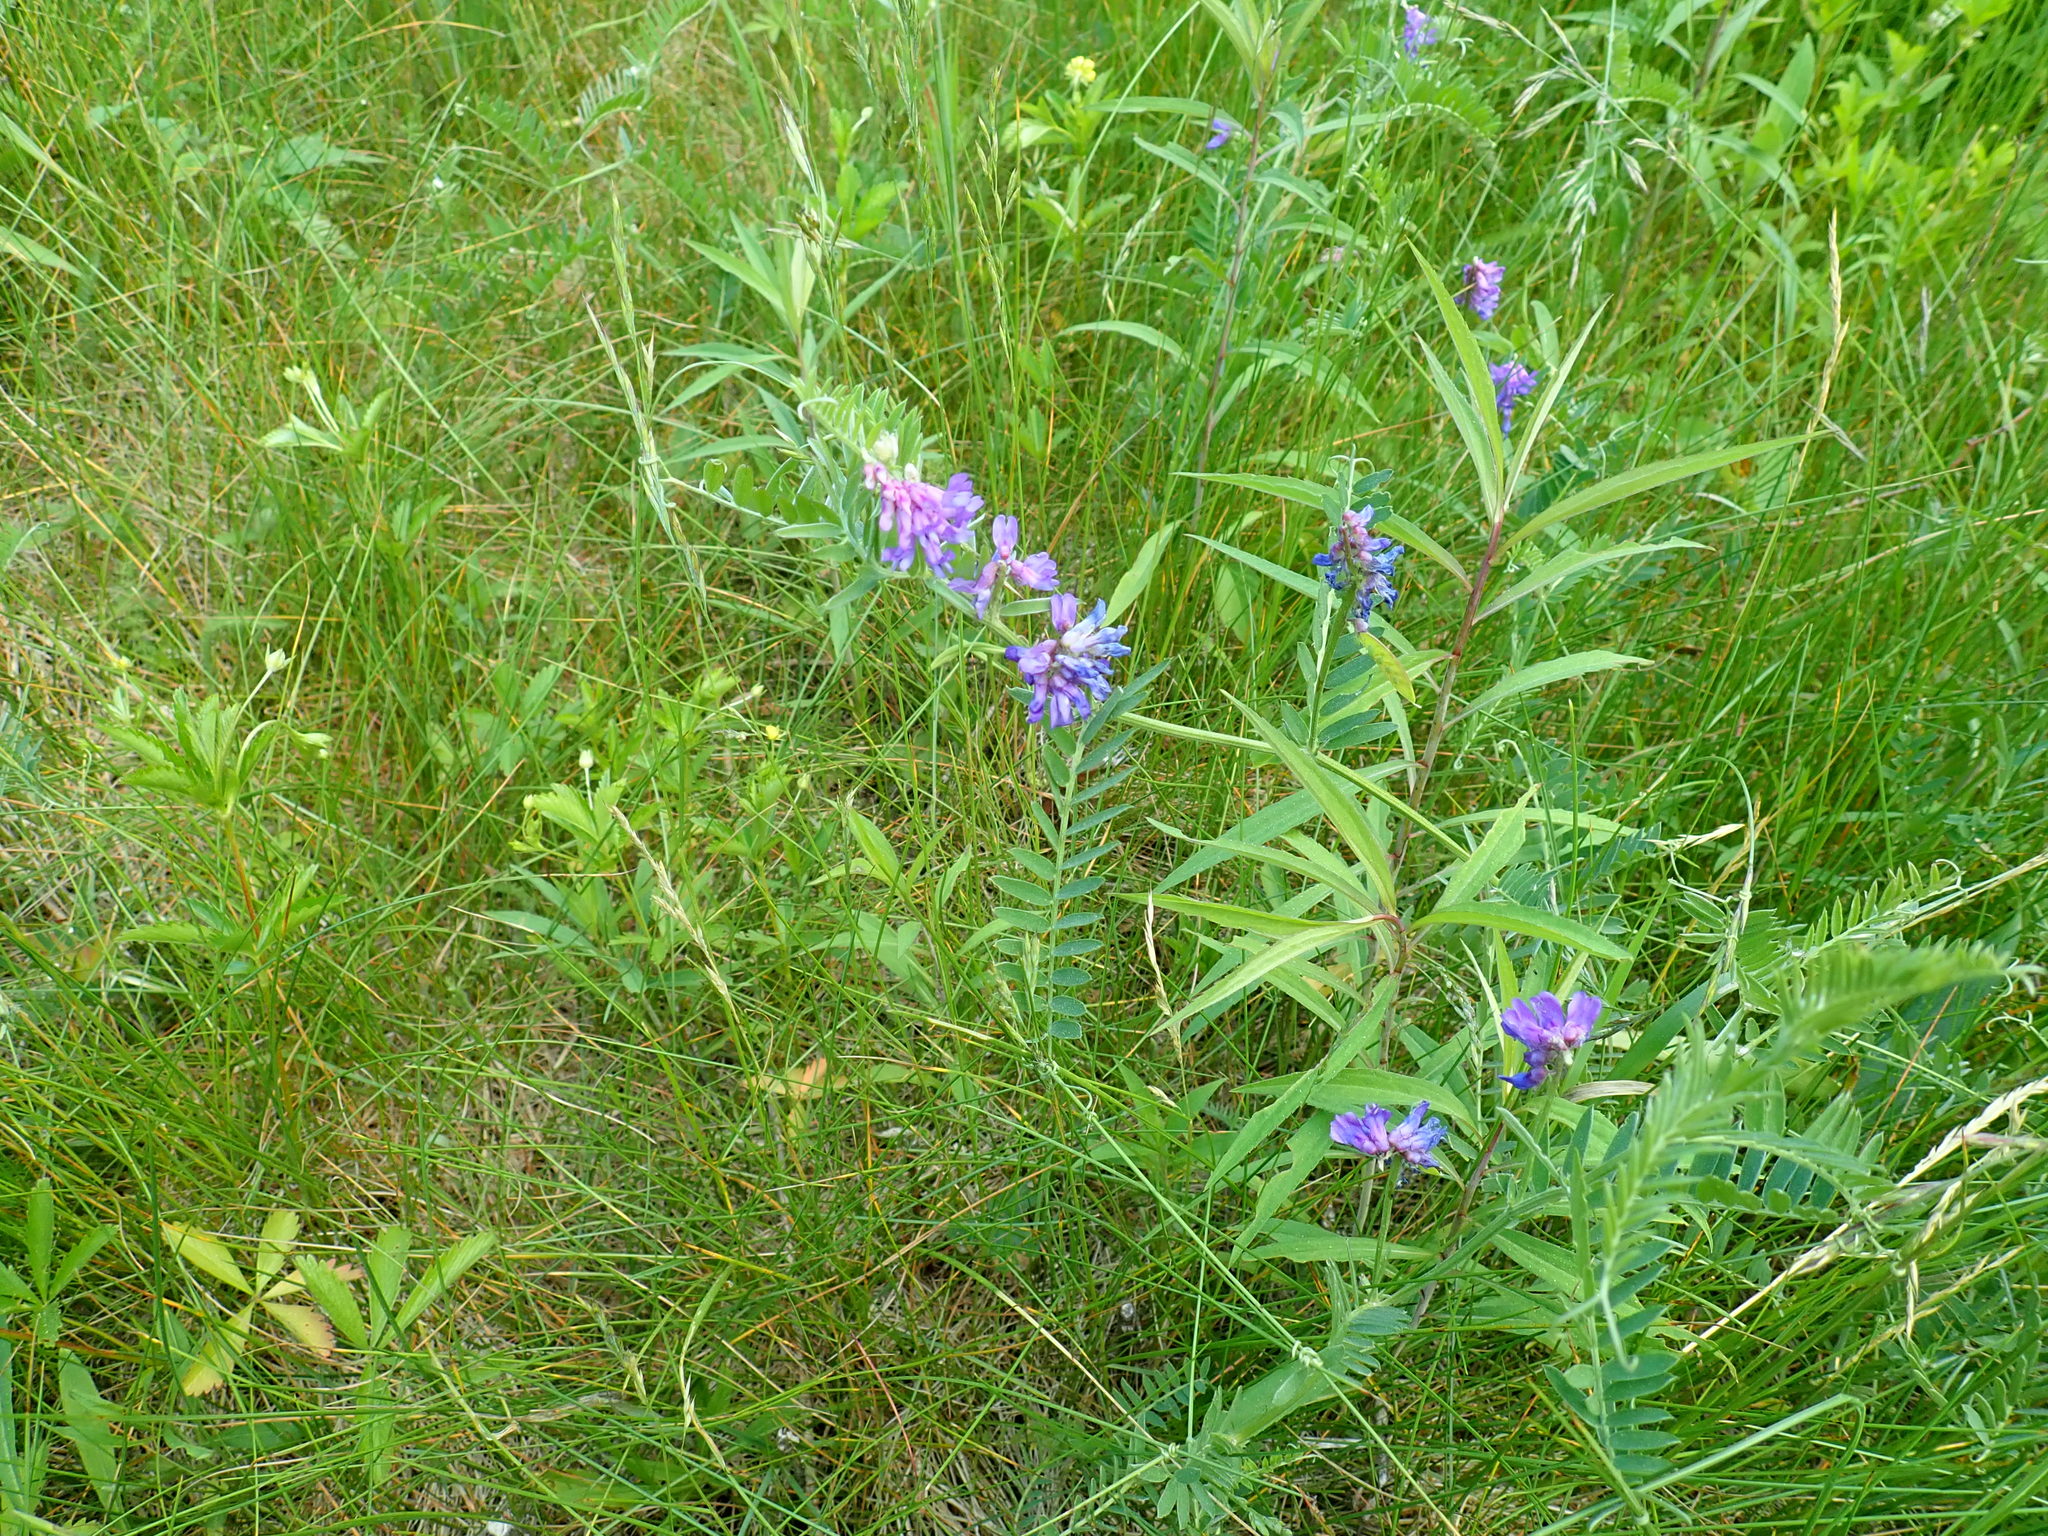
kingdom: Plantae
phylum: Tracheophyta
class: Magnoliopsida
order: Fabales
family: Fabaceae
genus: Vicia
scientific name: Vicia cracca
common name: Bird vetch
